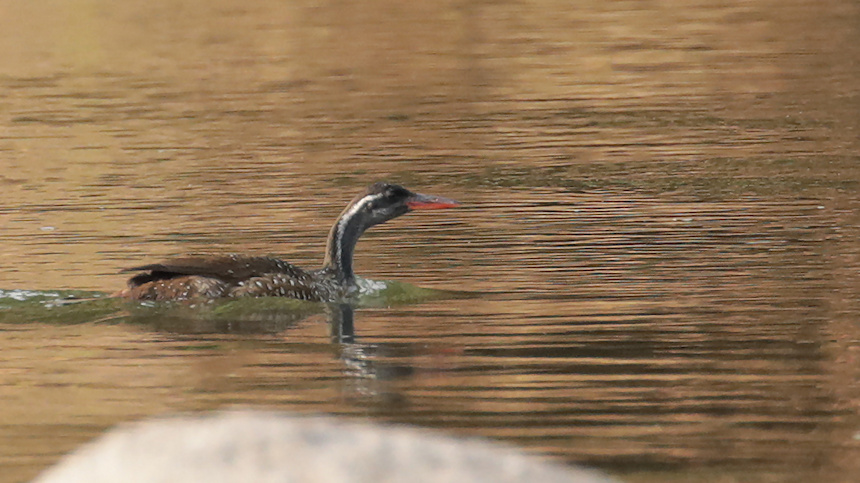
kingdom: Animalia
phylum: Chordata
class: Aves
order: Gruiformes
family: Heliornithidae
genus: Podica
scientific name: Podica senegalensis
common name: African finfoot
